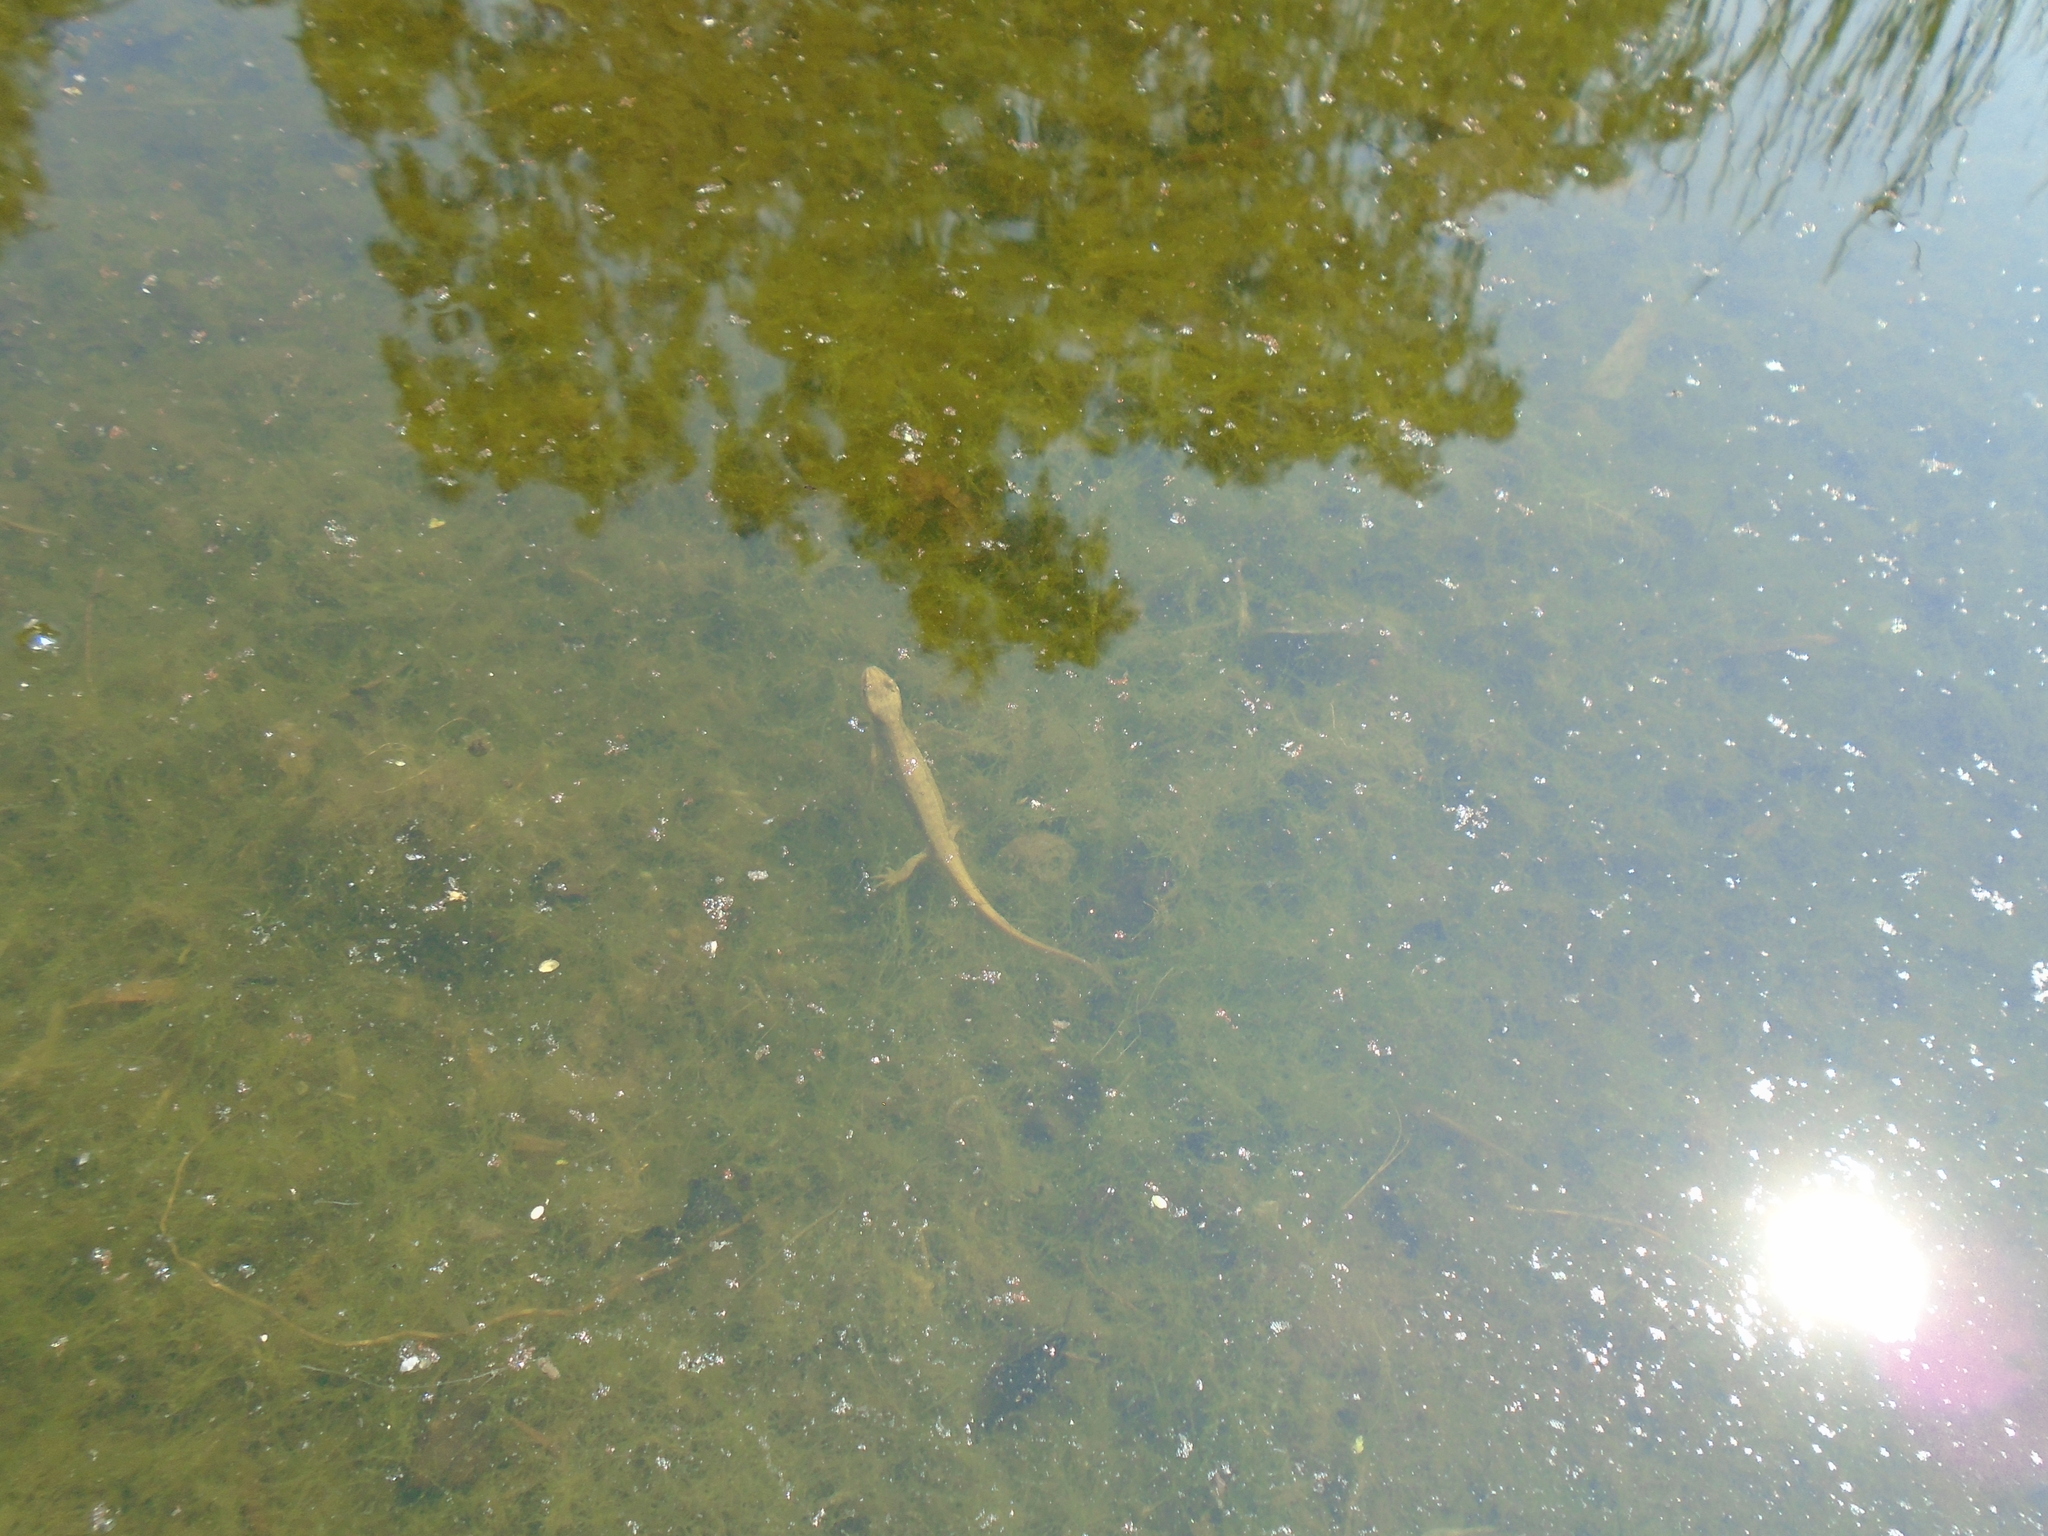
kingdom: Animalia
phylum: Chordata
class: Amphibia
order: Caudata
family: Salamandridae
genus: Lissotriton
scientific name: Lissotriton vulgaris
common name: Smooth newt
